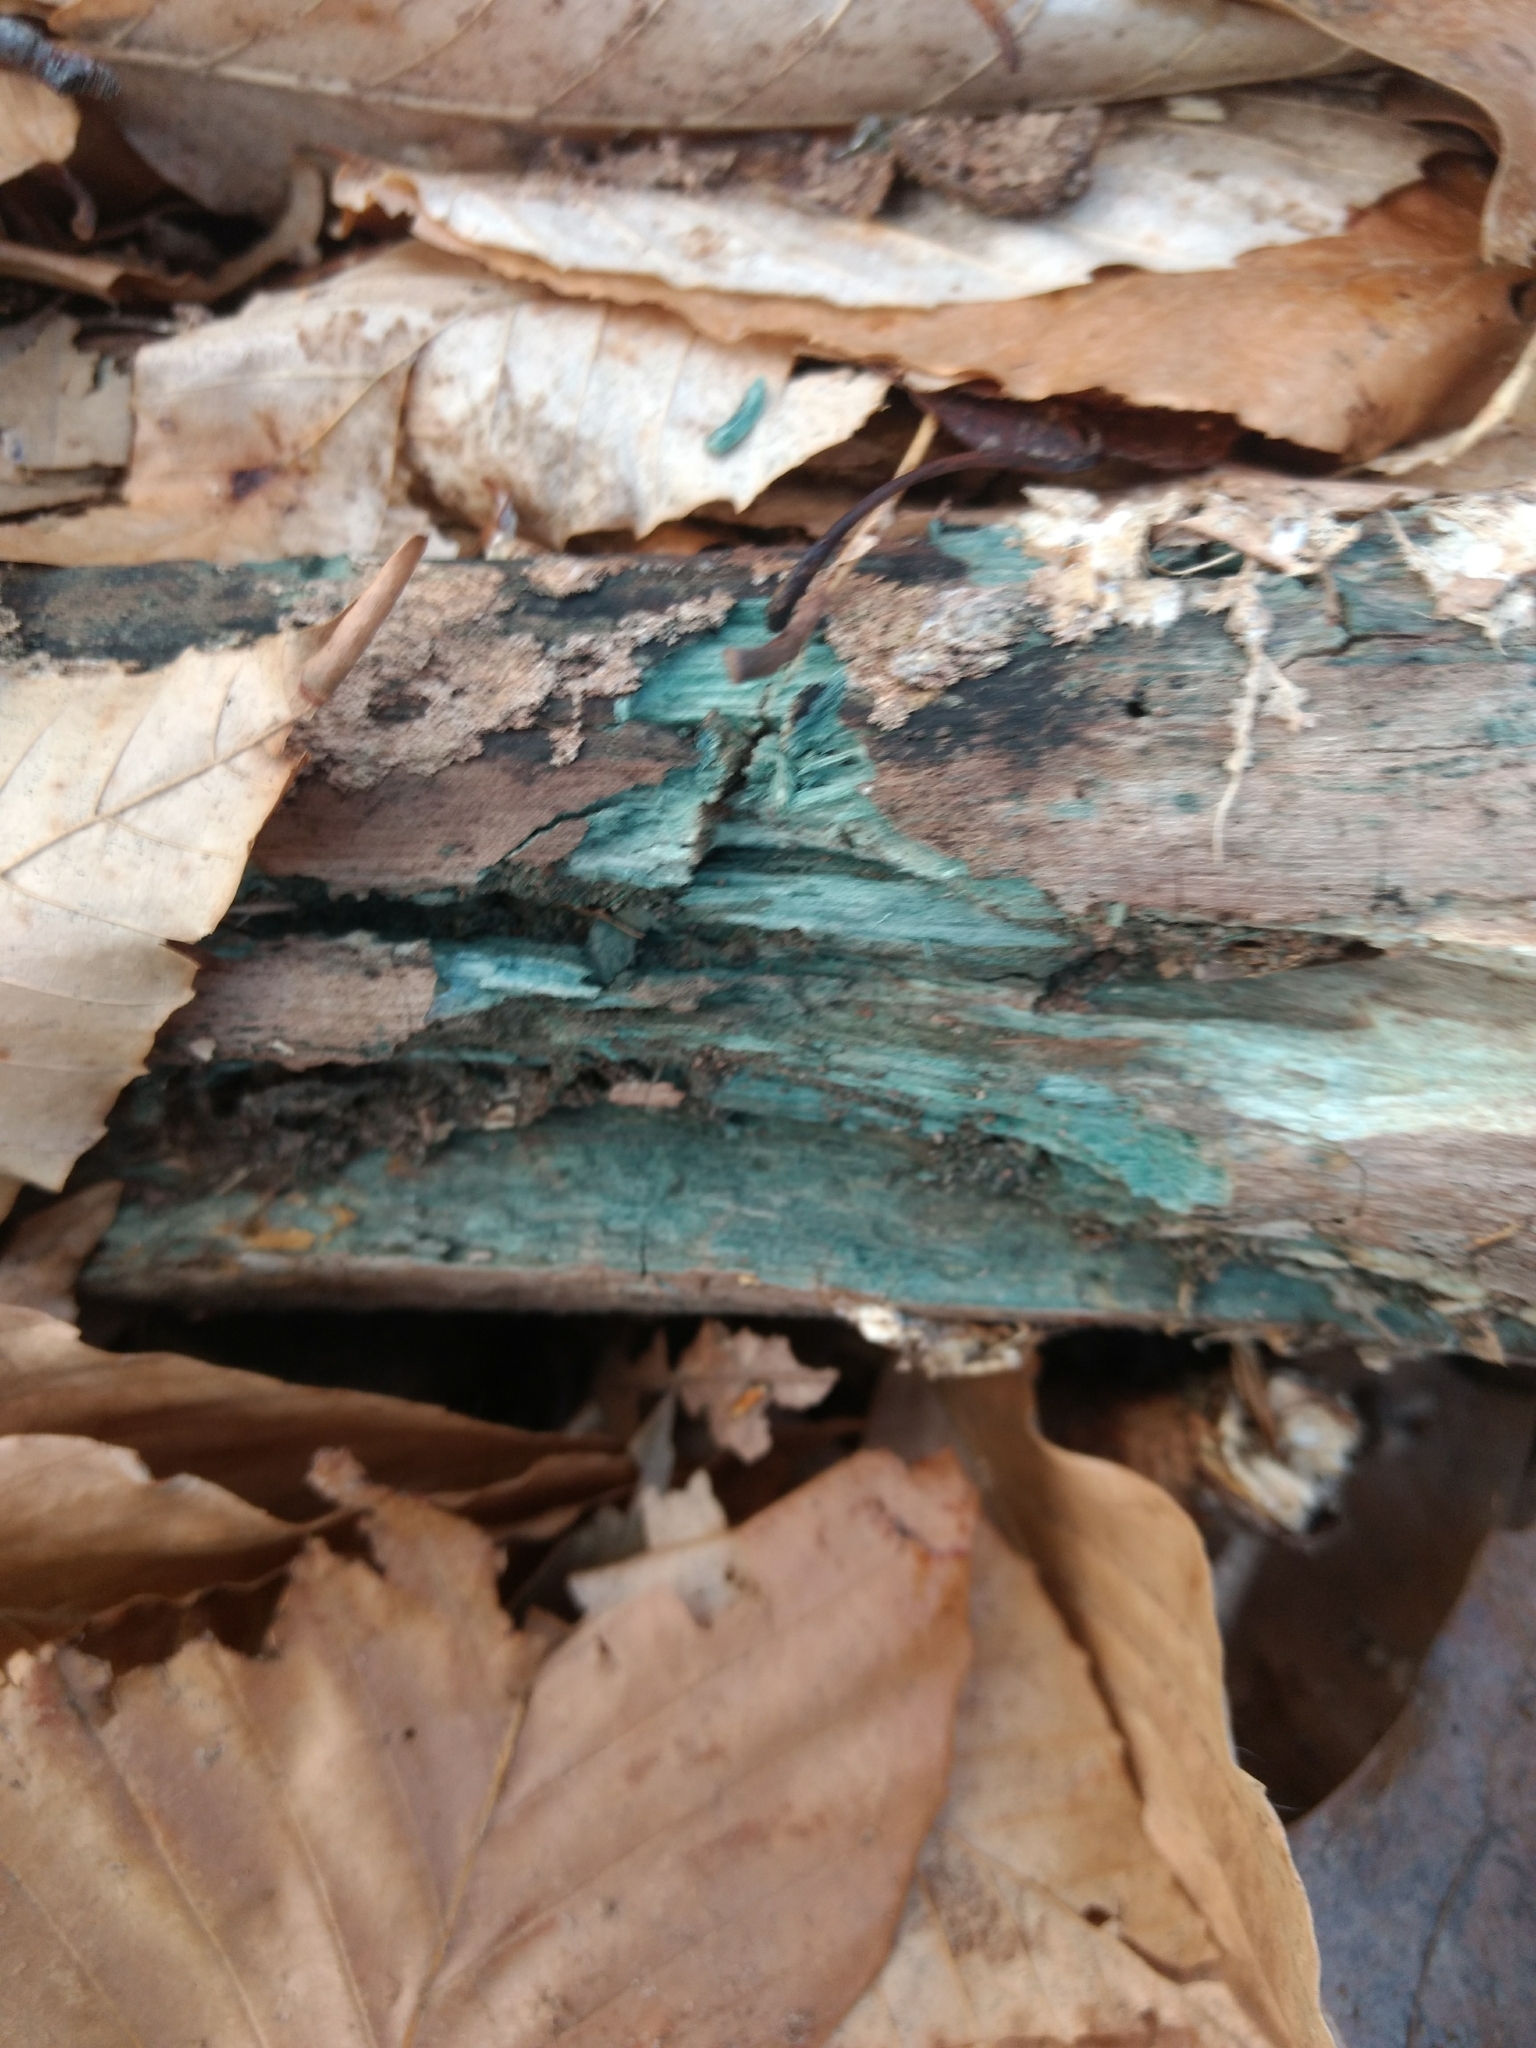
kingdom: Fungi
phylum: Ascomycota
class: Leotiomycetes
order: Helotiales
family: Chlorociboriaceae
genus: Chlorociboria
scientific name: Chlorociboria
